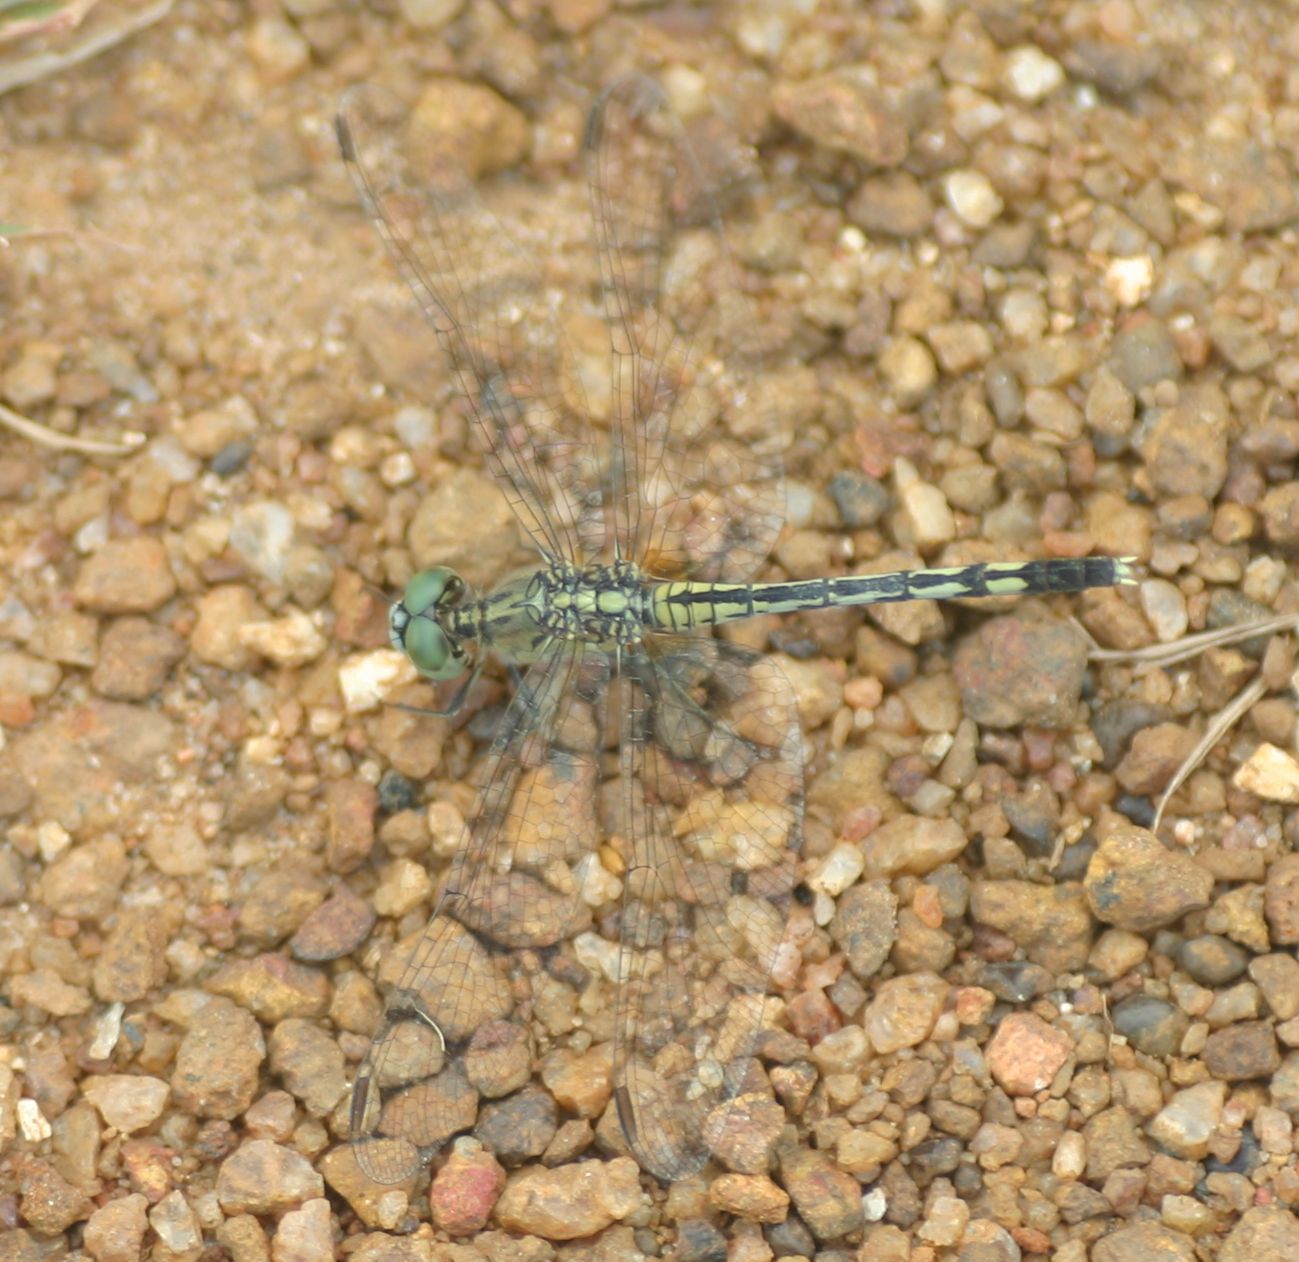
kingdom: Animalia
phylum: Arthropoda
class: Insecta
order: Odonata
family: Libellulidae
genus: Diplacodes
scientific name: Diplacodes trivialis
